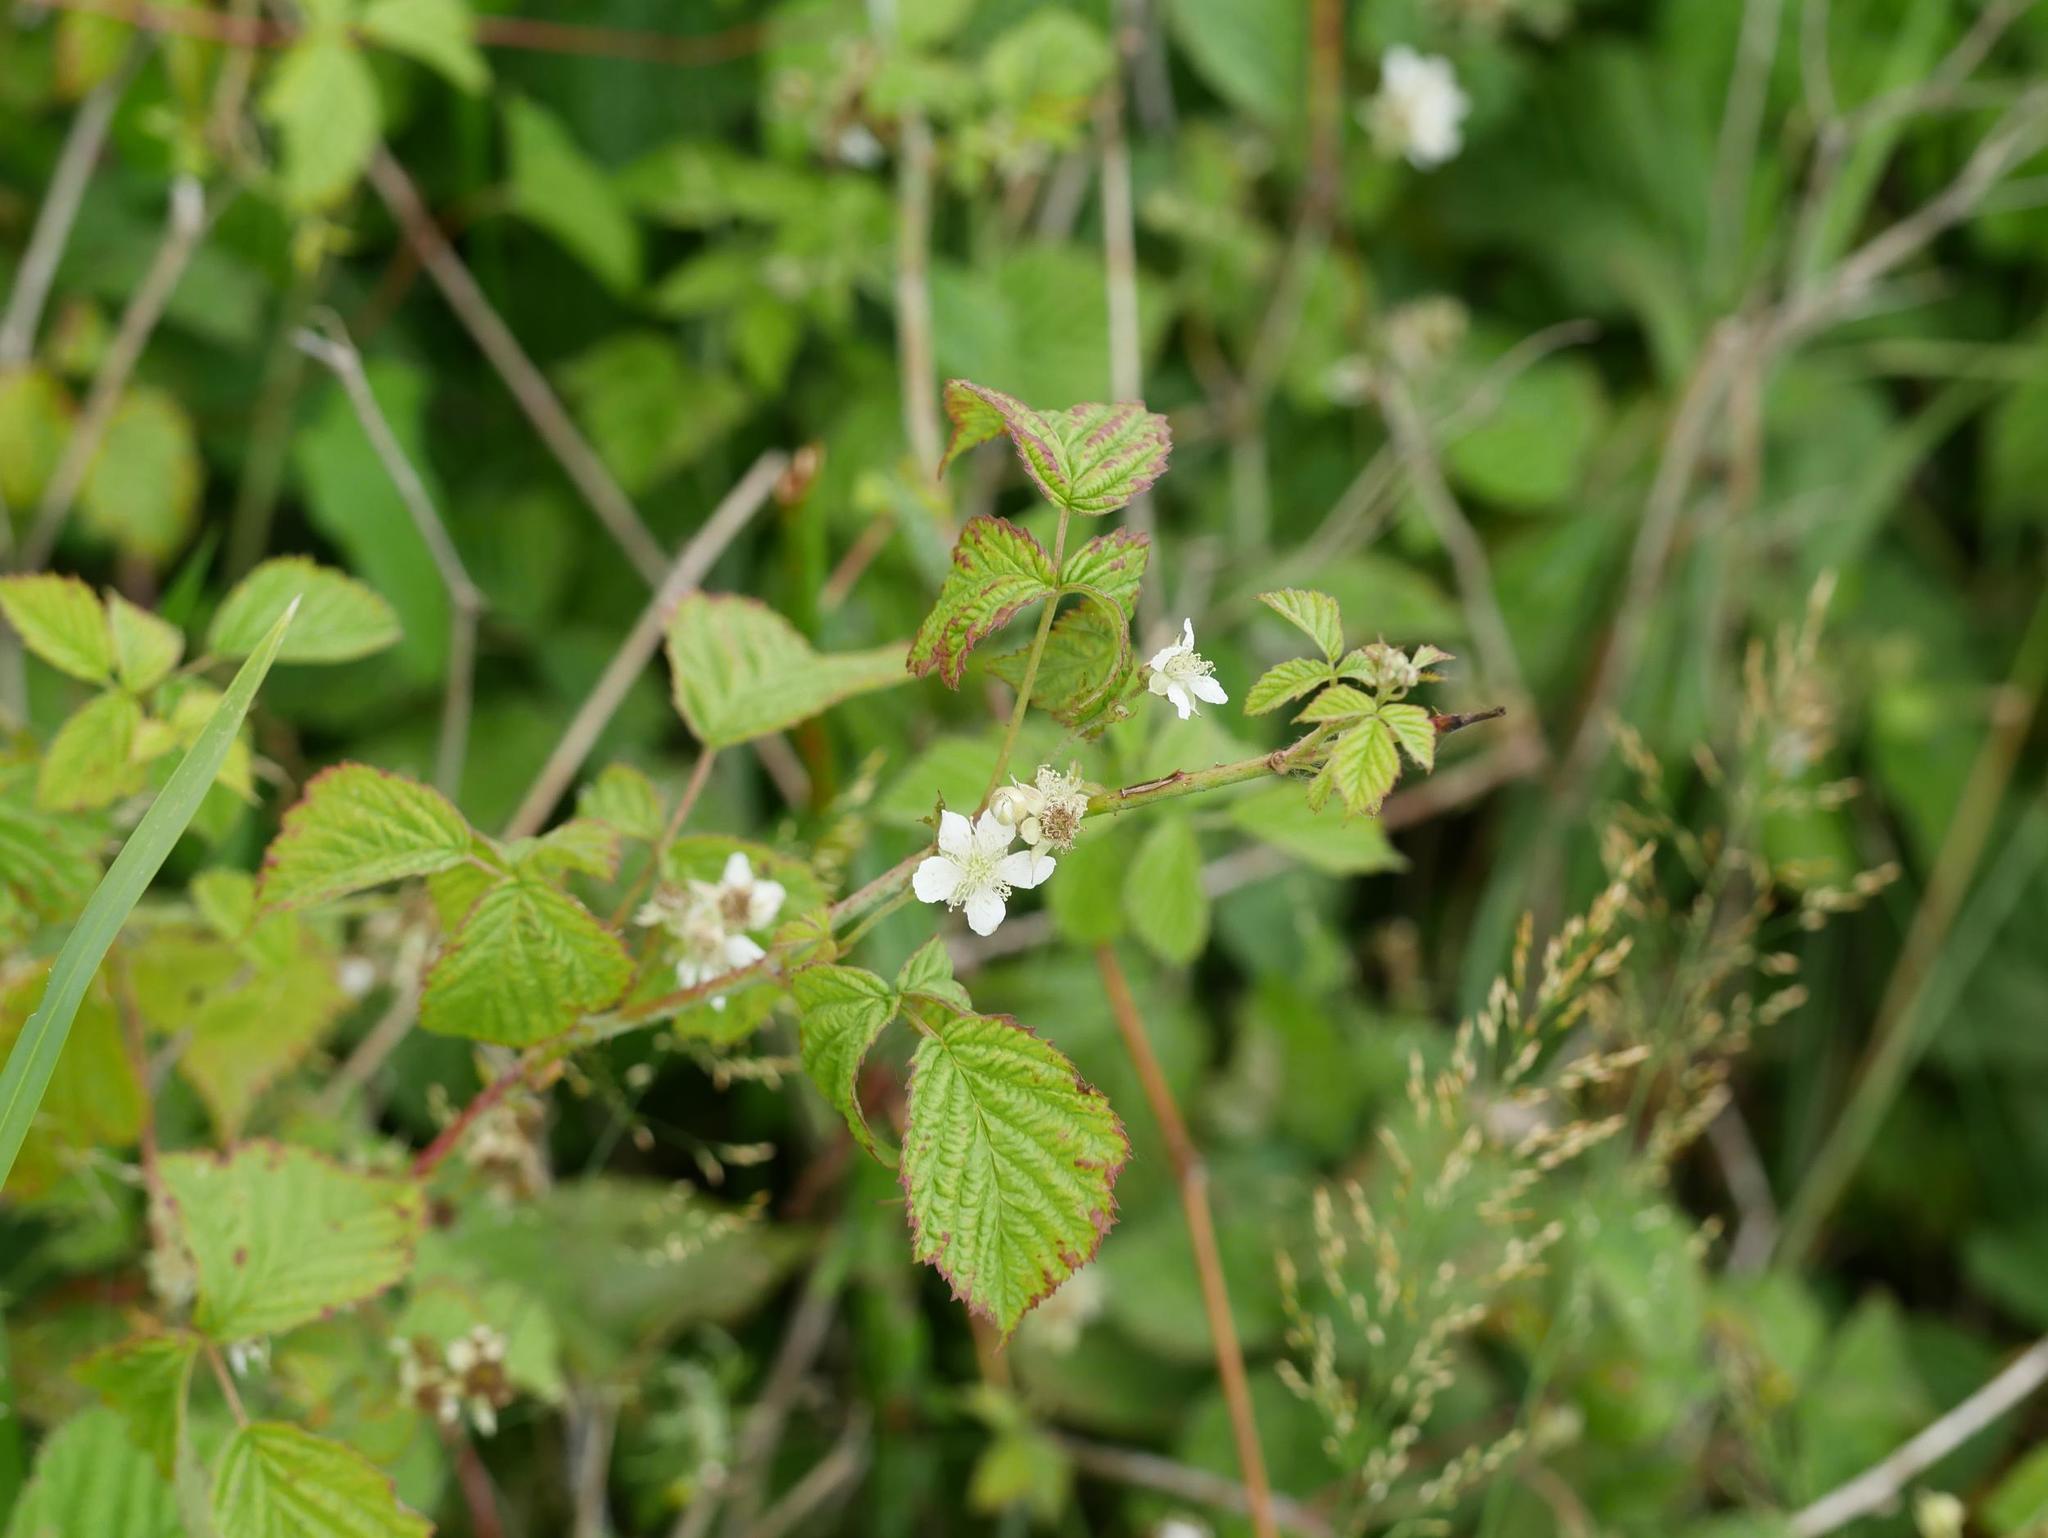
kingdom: Plantae
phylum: Tracheophyta
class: Magnoliopsida
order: Rosales
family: Rosaceae
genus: Rubus
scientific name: Rubus caesius
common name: Dewberry
